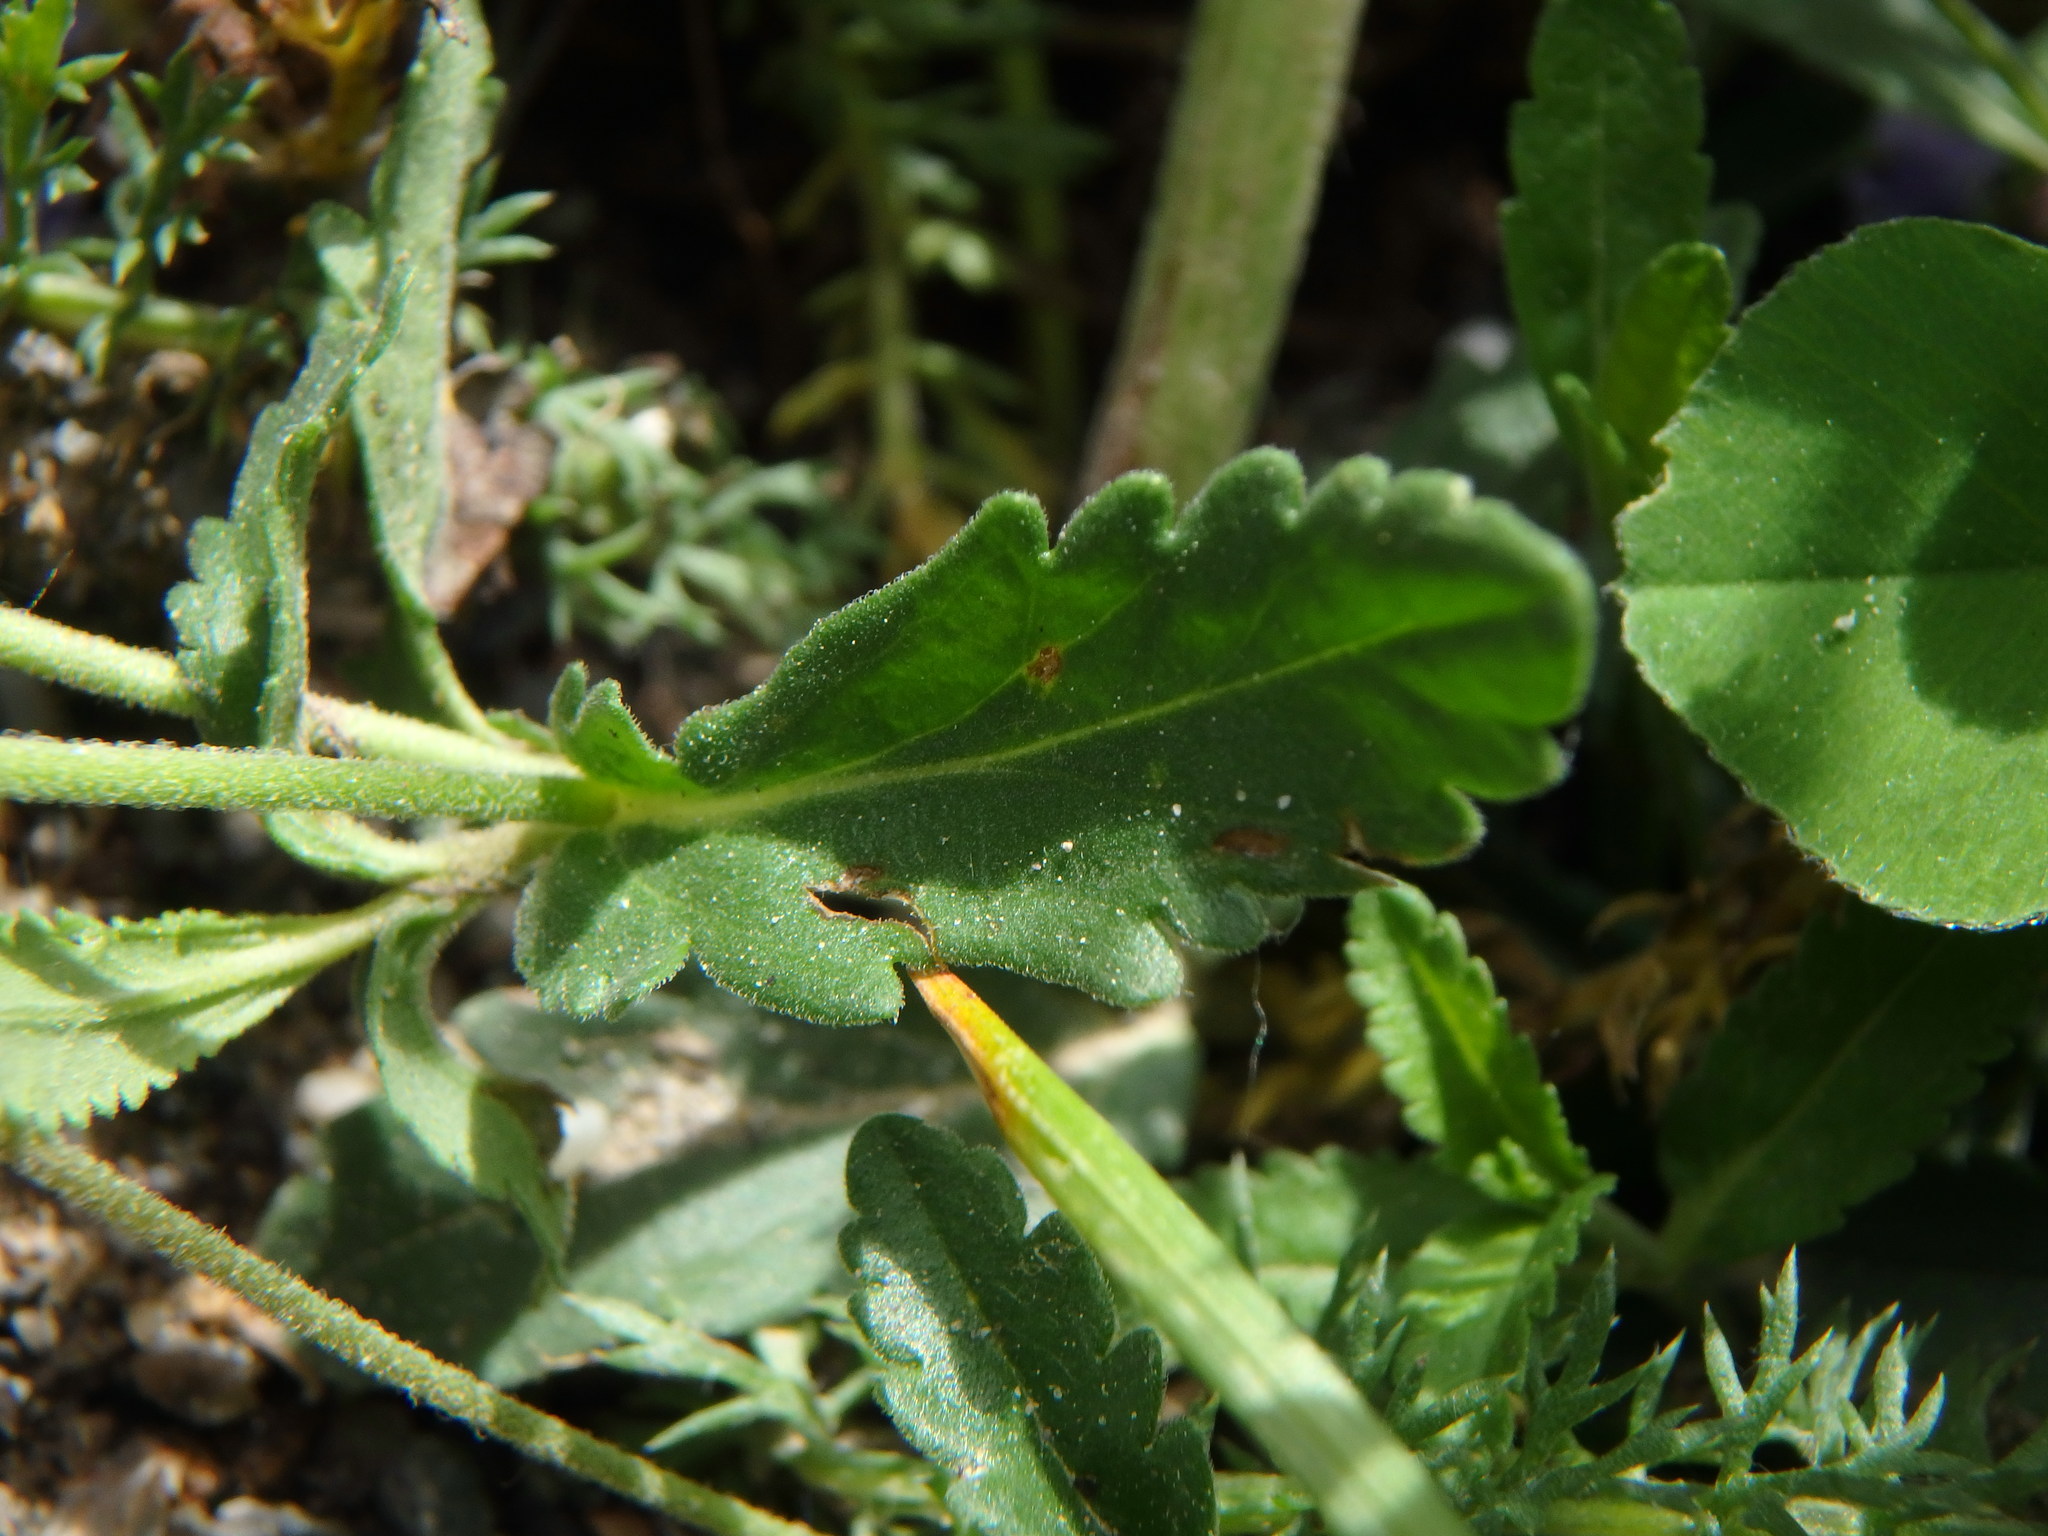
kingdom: Plantae
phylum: Tracheophyta
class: Magnoliopsida
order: Lamiales
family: Plantaginaceae
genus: Veronica
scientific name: Veronica teucrium
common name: Large speedwell
